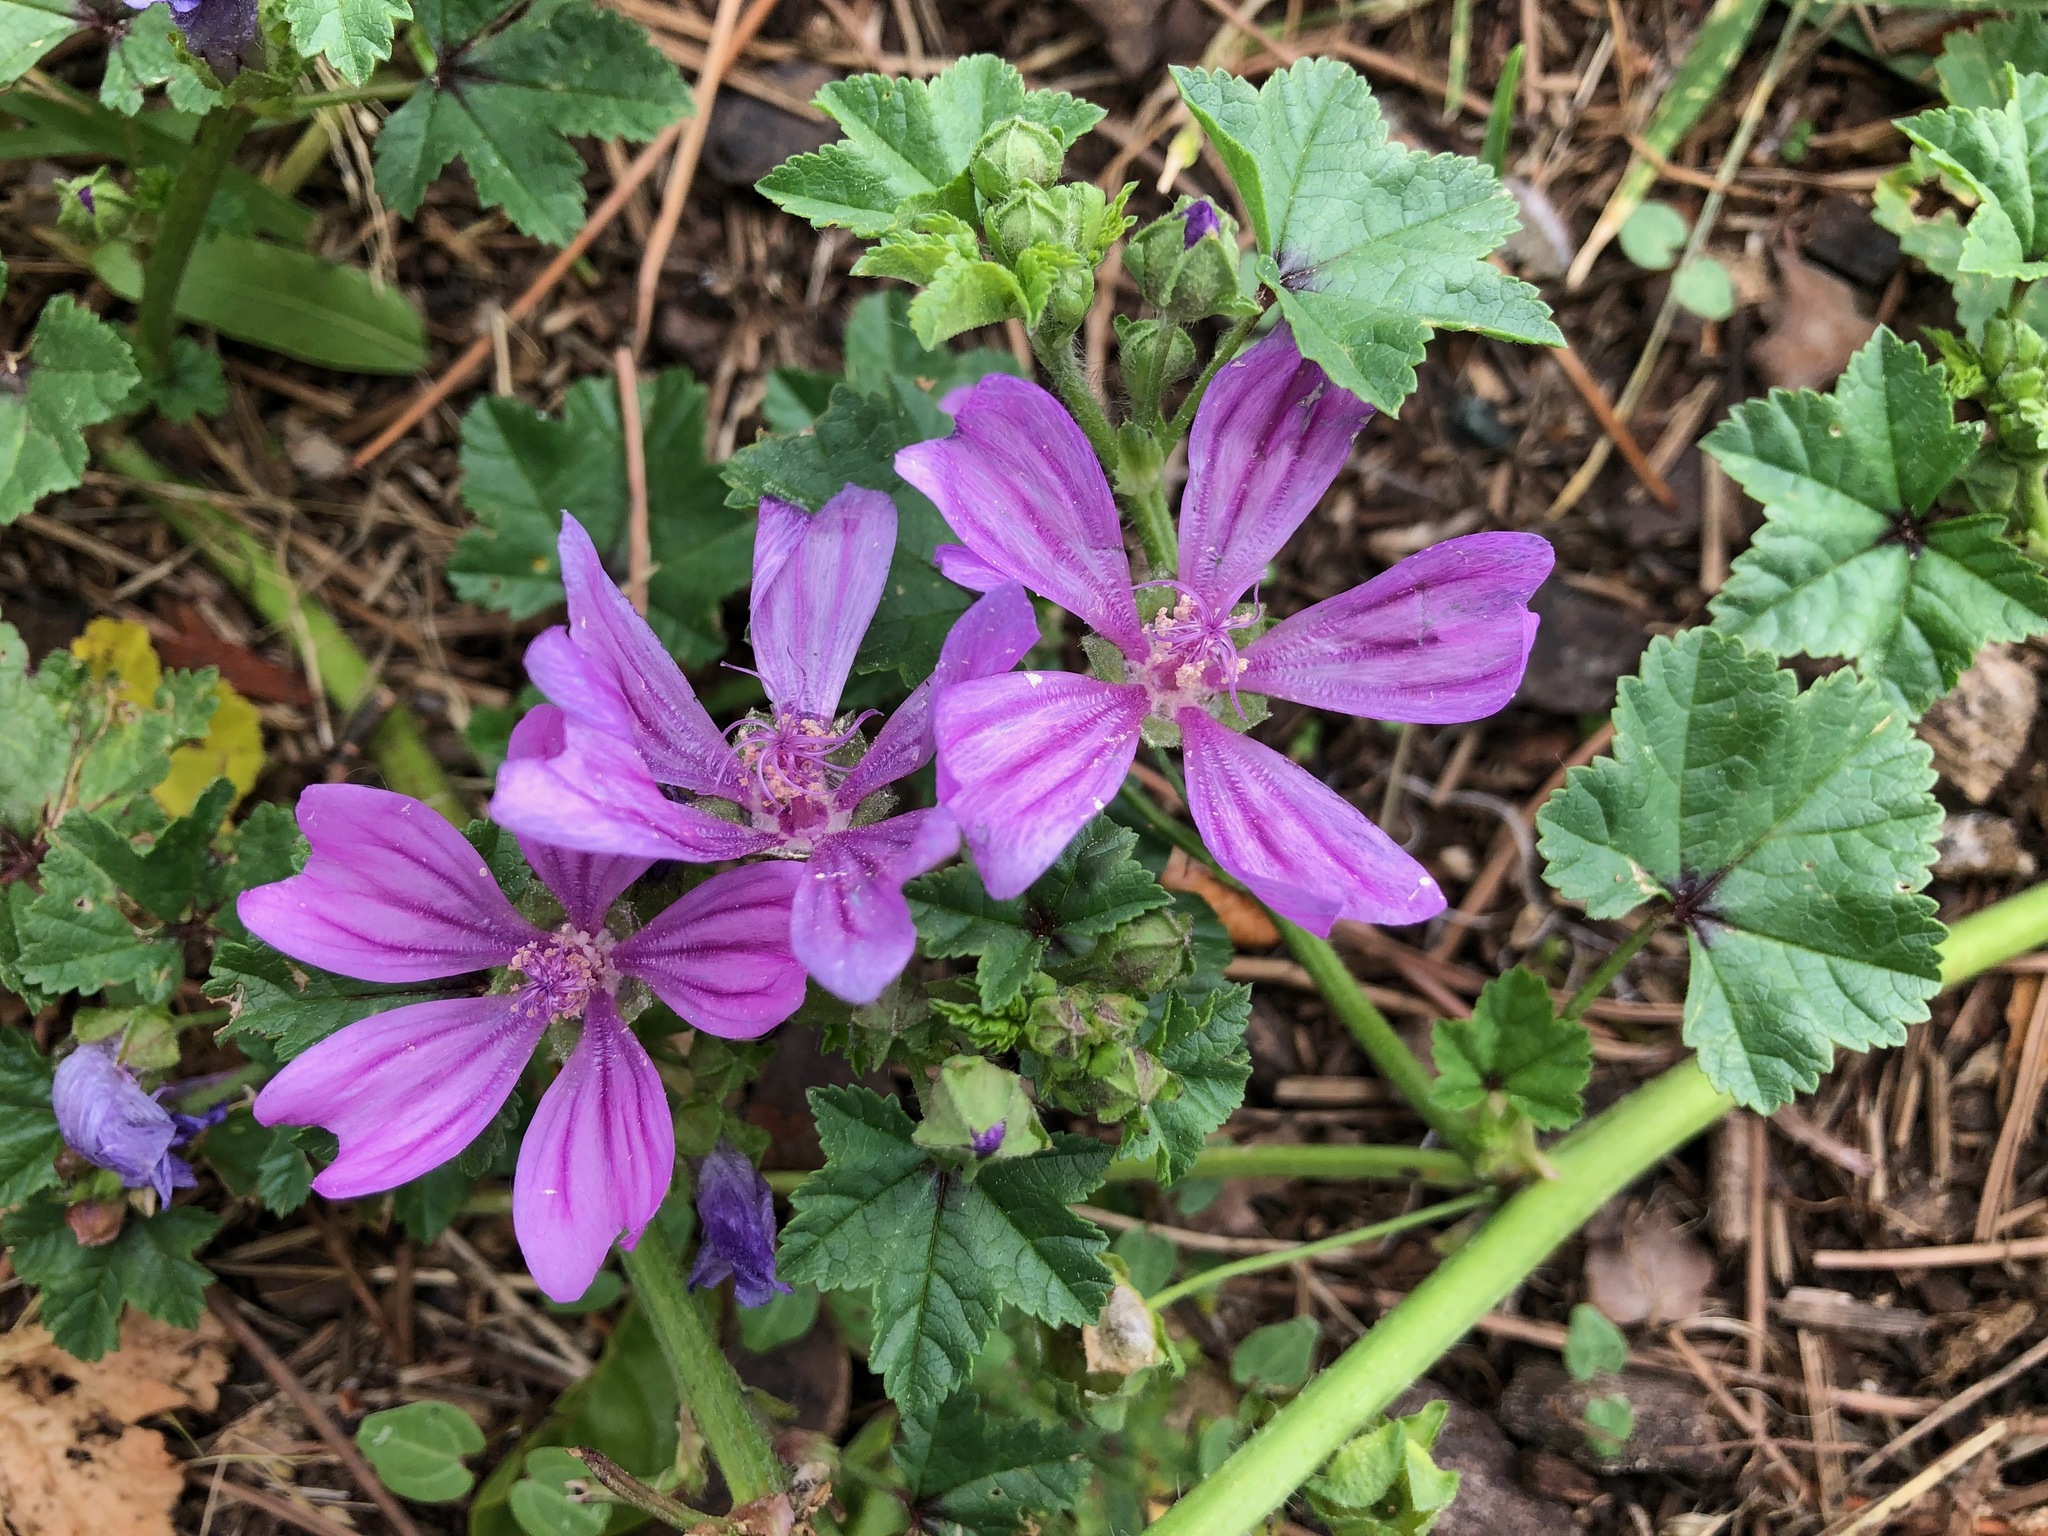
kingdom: Plantae
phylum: Tracheophyta
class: Magnoliopsida
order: Malvales
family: Malvaceae
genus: Malva
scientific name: Malva sylvestris
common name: Common mallow
